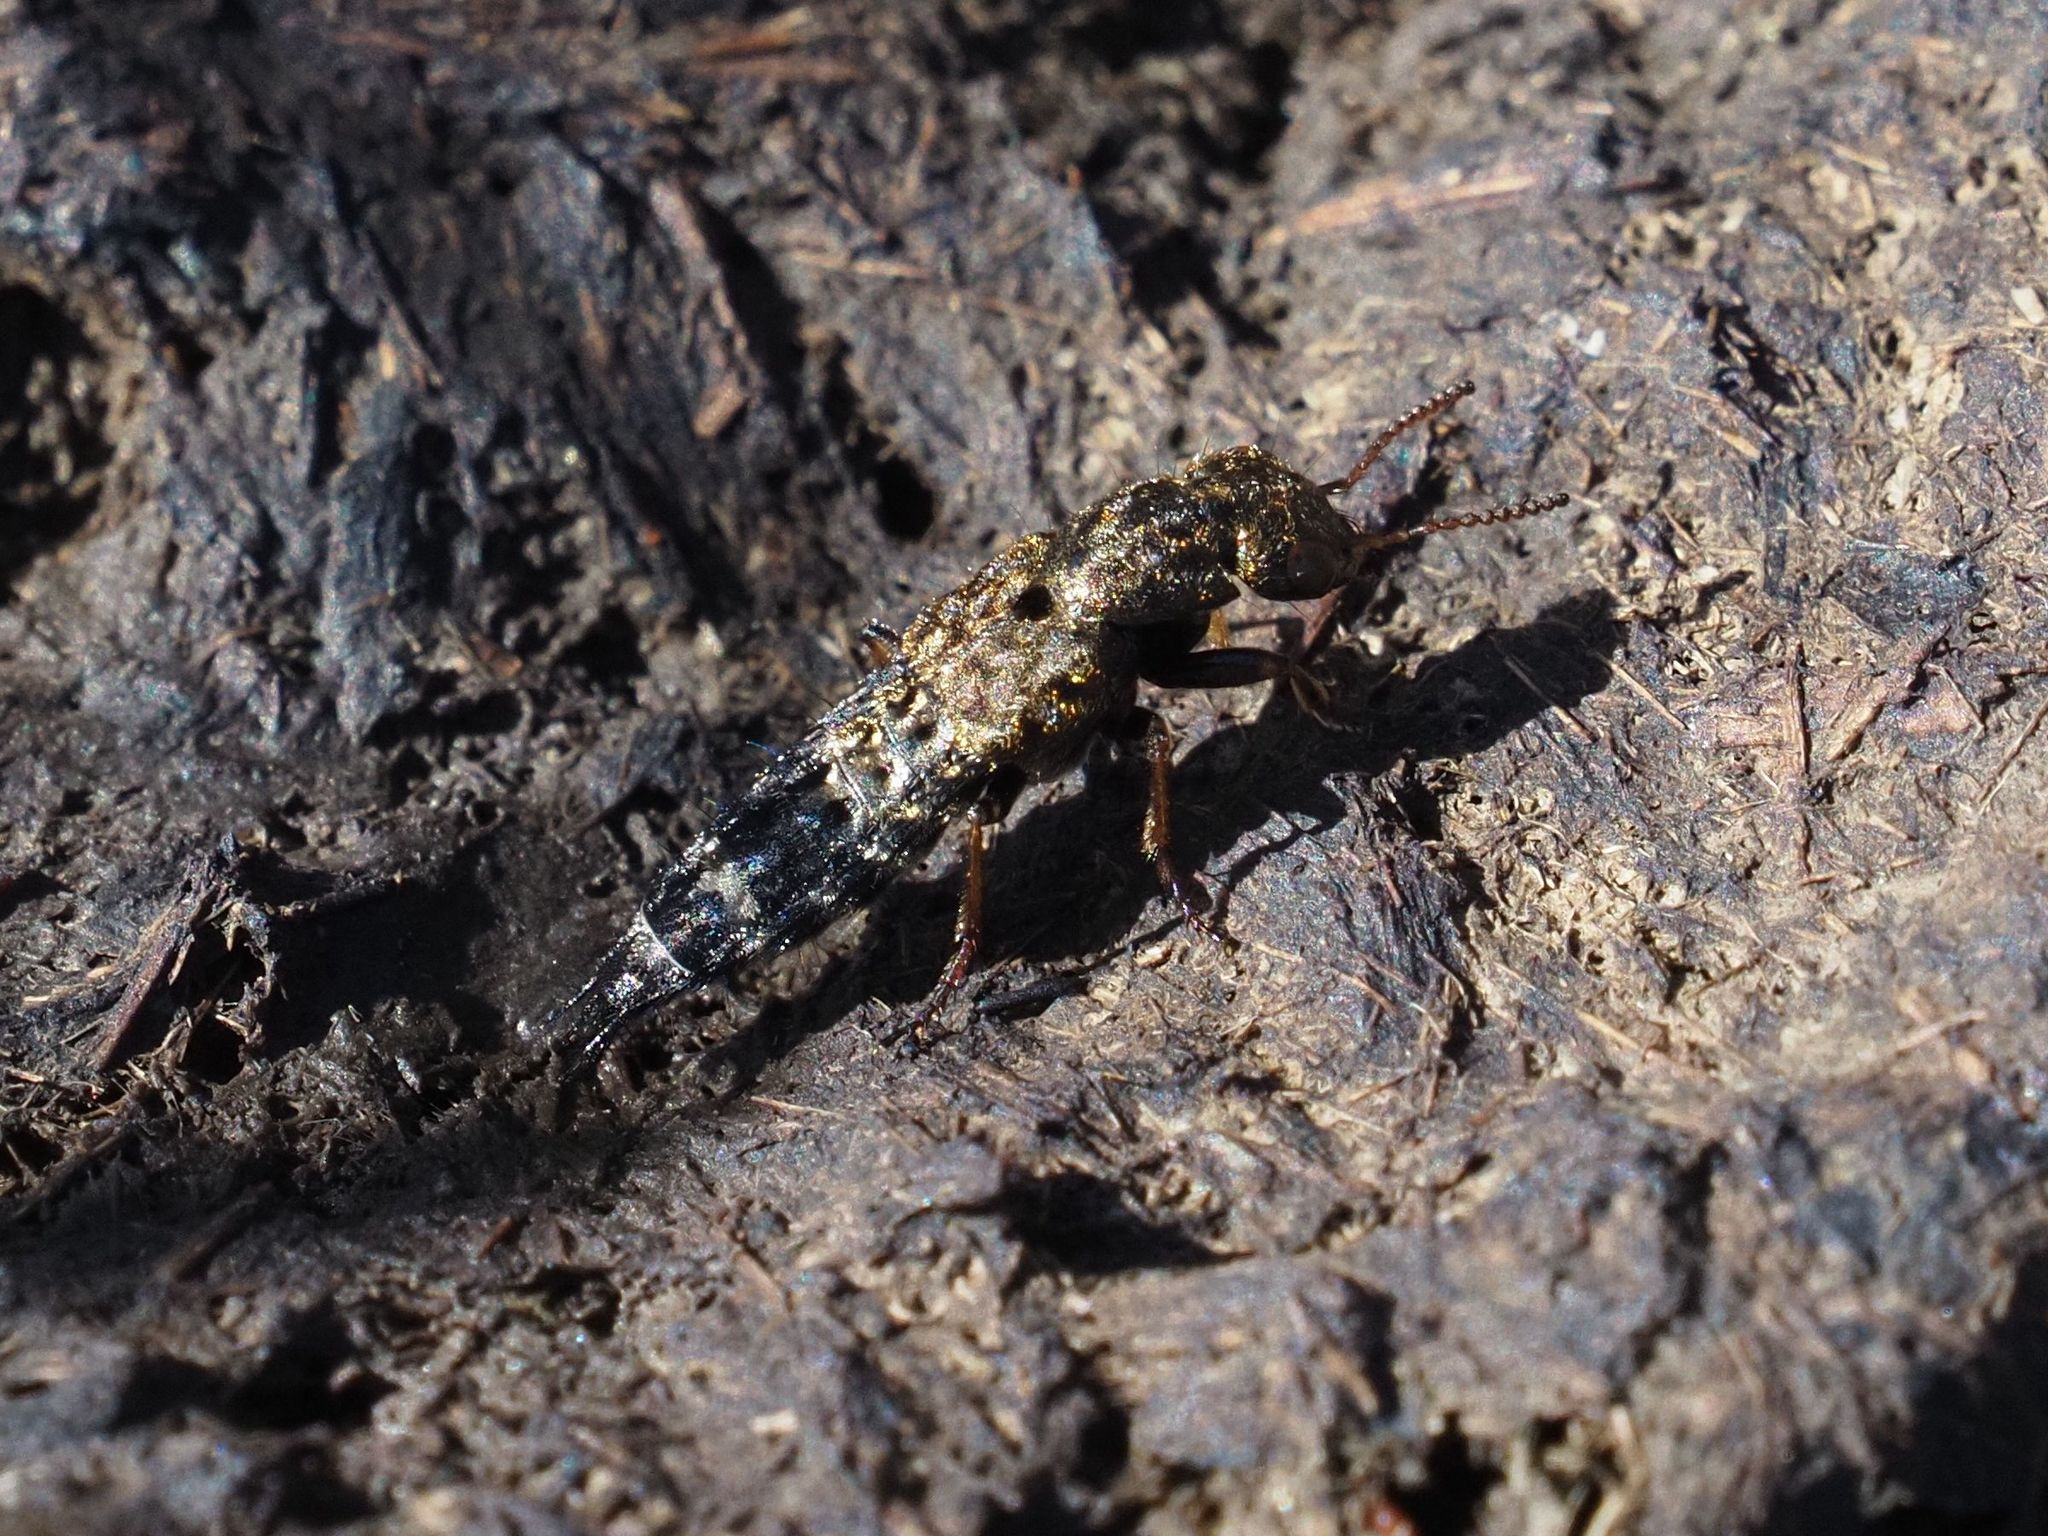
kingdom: Animalia
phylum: Arthropoda
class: Insecta
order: Coleoptera
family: Staphylinidae
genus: Ontholestes
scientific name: Ontholestes haroldi
